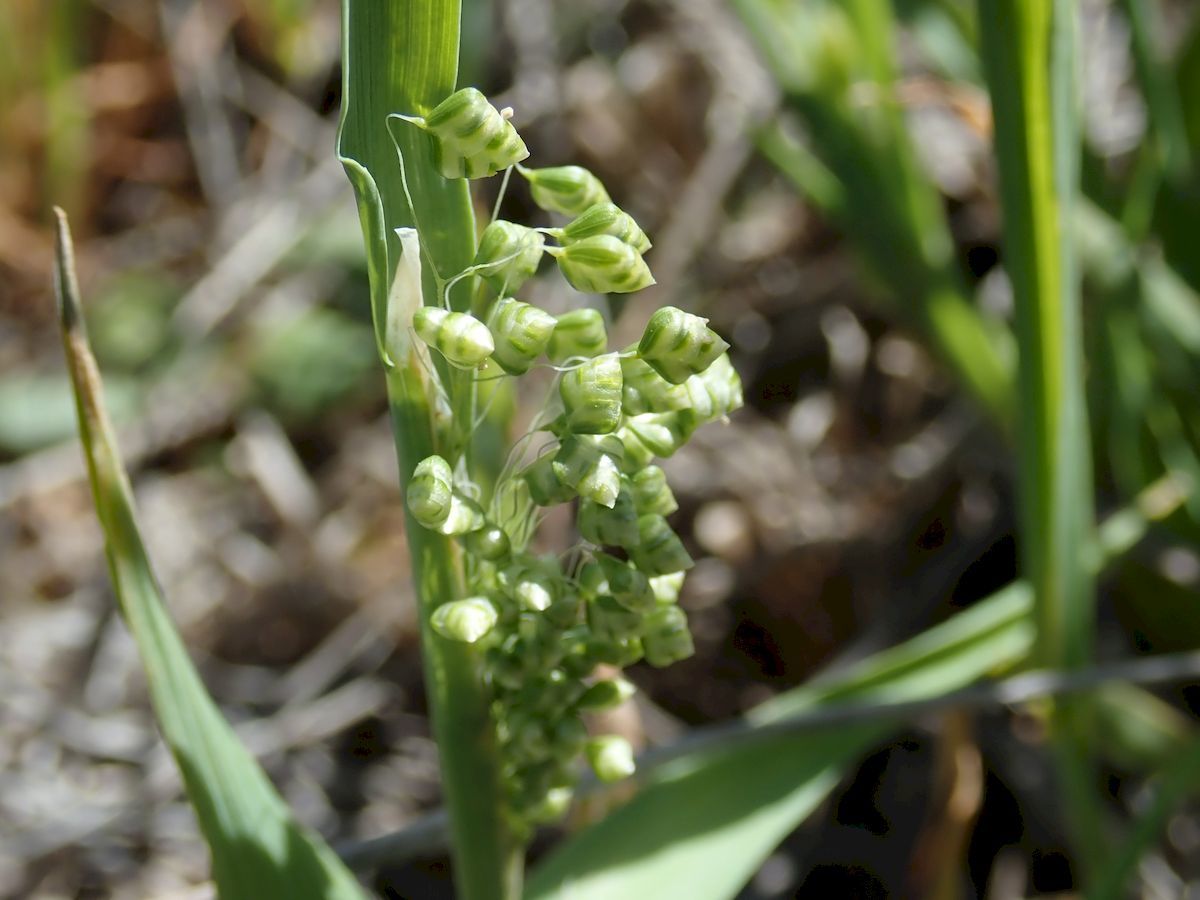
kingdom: Plantae
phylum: Tracheophyta
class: Liliopsida
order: Poales
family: Poaceae
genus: Briza
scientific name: Briza minor
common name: Lesser quaking-grass
